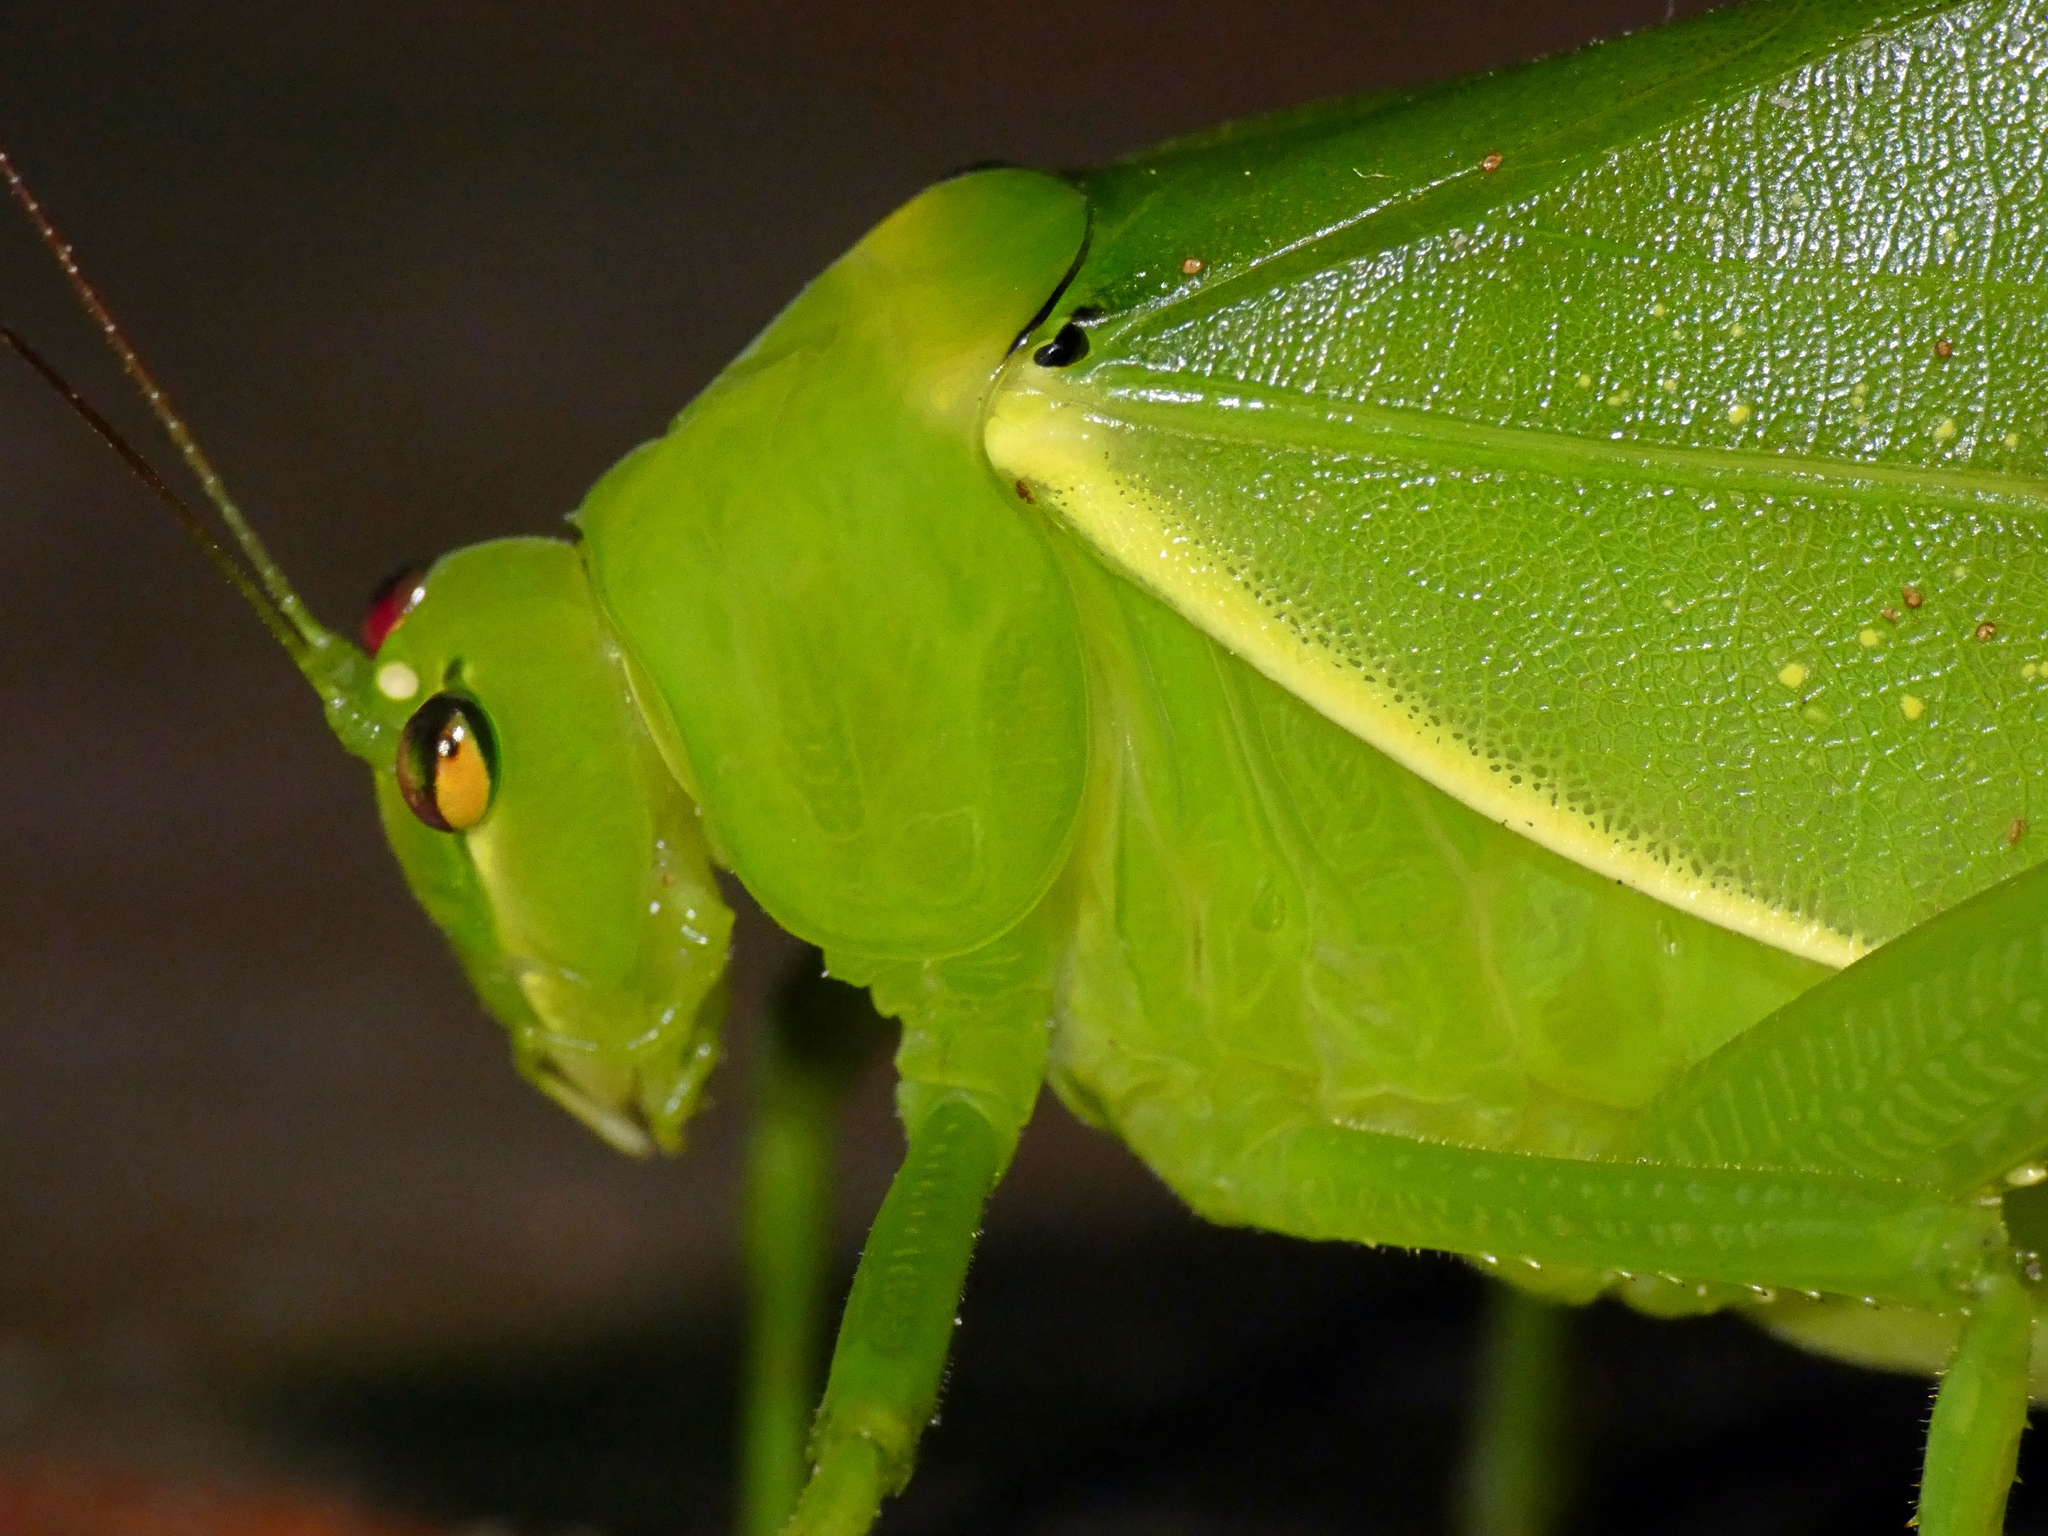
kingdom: Animalia
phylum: Arthropoda
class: Insecta
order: Orthoptera
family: Tettigoniidae
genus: Paracaedicia
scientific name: Paracaedicia serrata
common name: Serrated bush katydid
